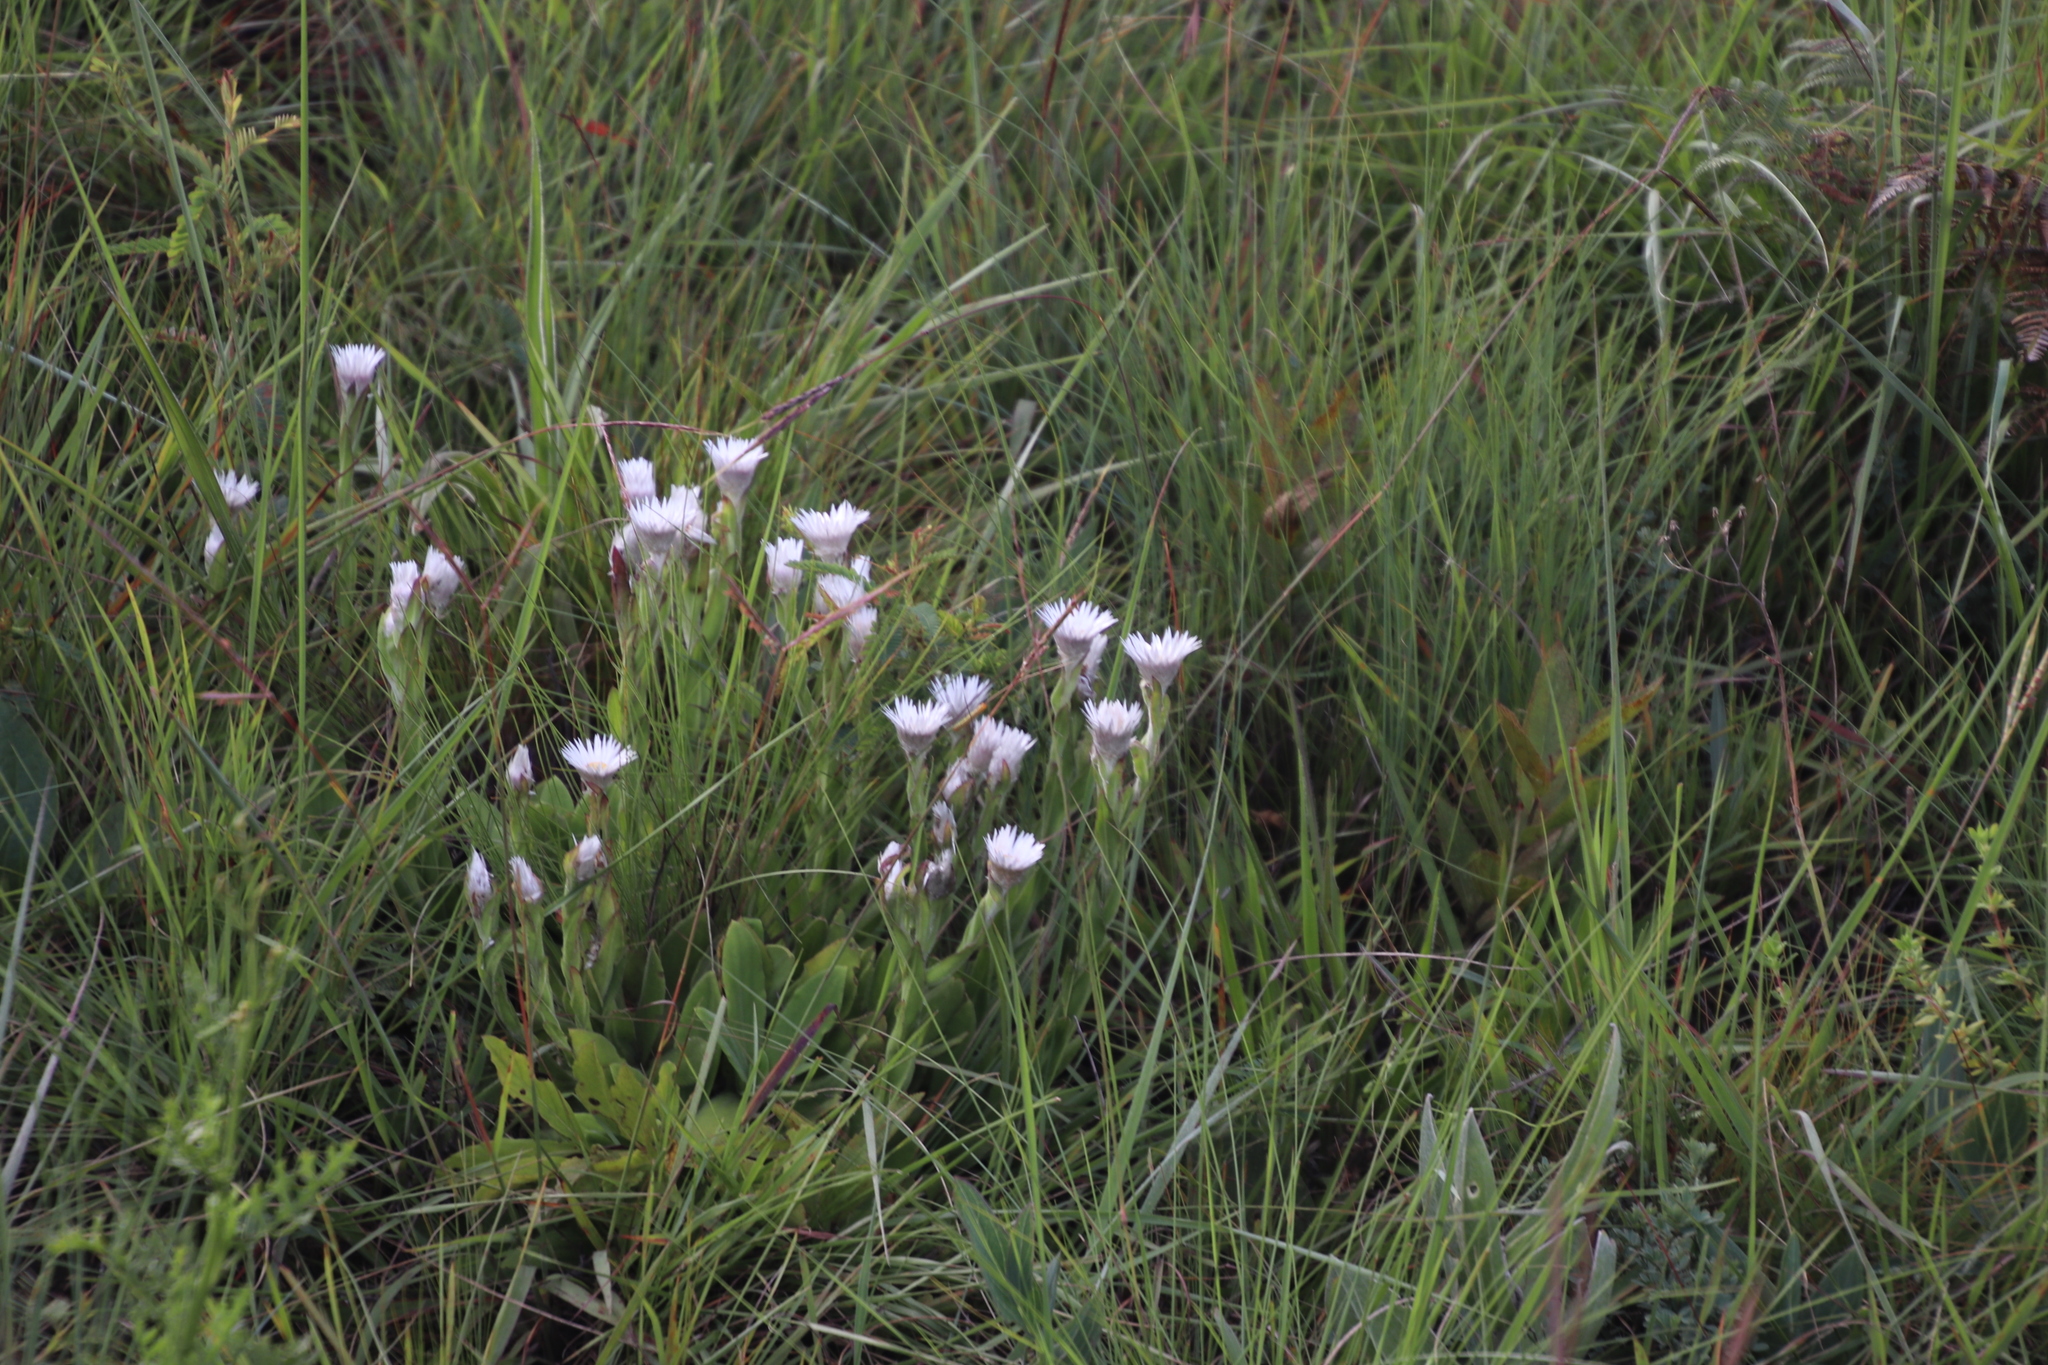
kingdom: Plantae
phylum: Tracheophyta
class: Magnoliopsida
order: Asterales
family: Asteraceae
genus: Helichrysum
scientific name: Helichrysum monticola
